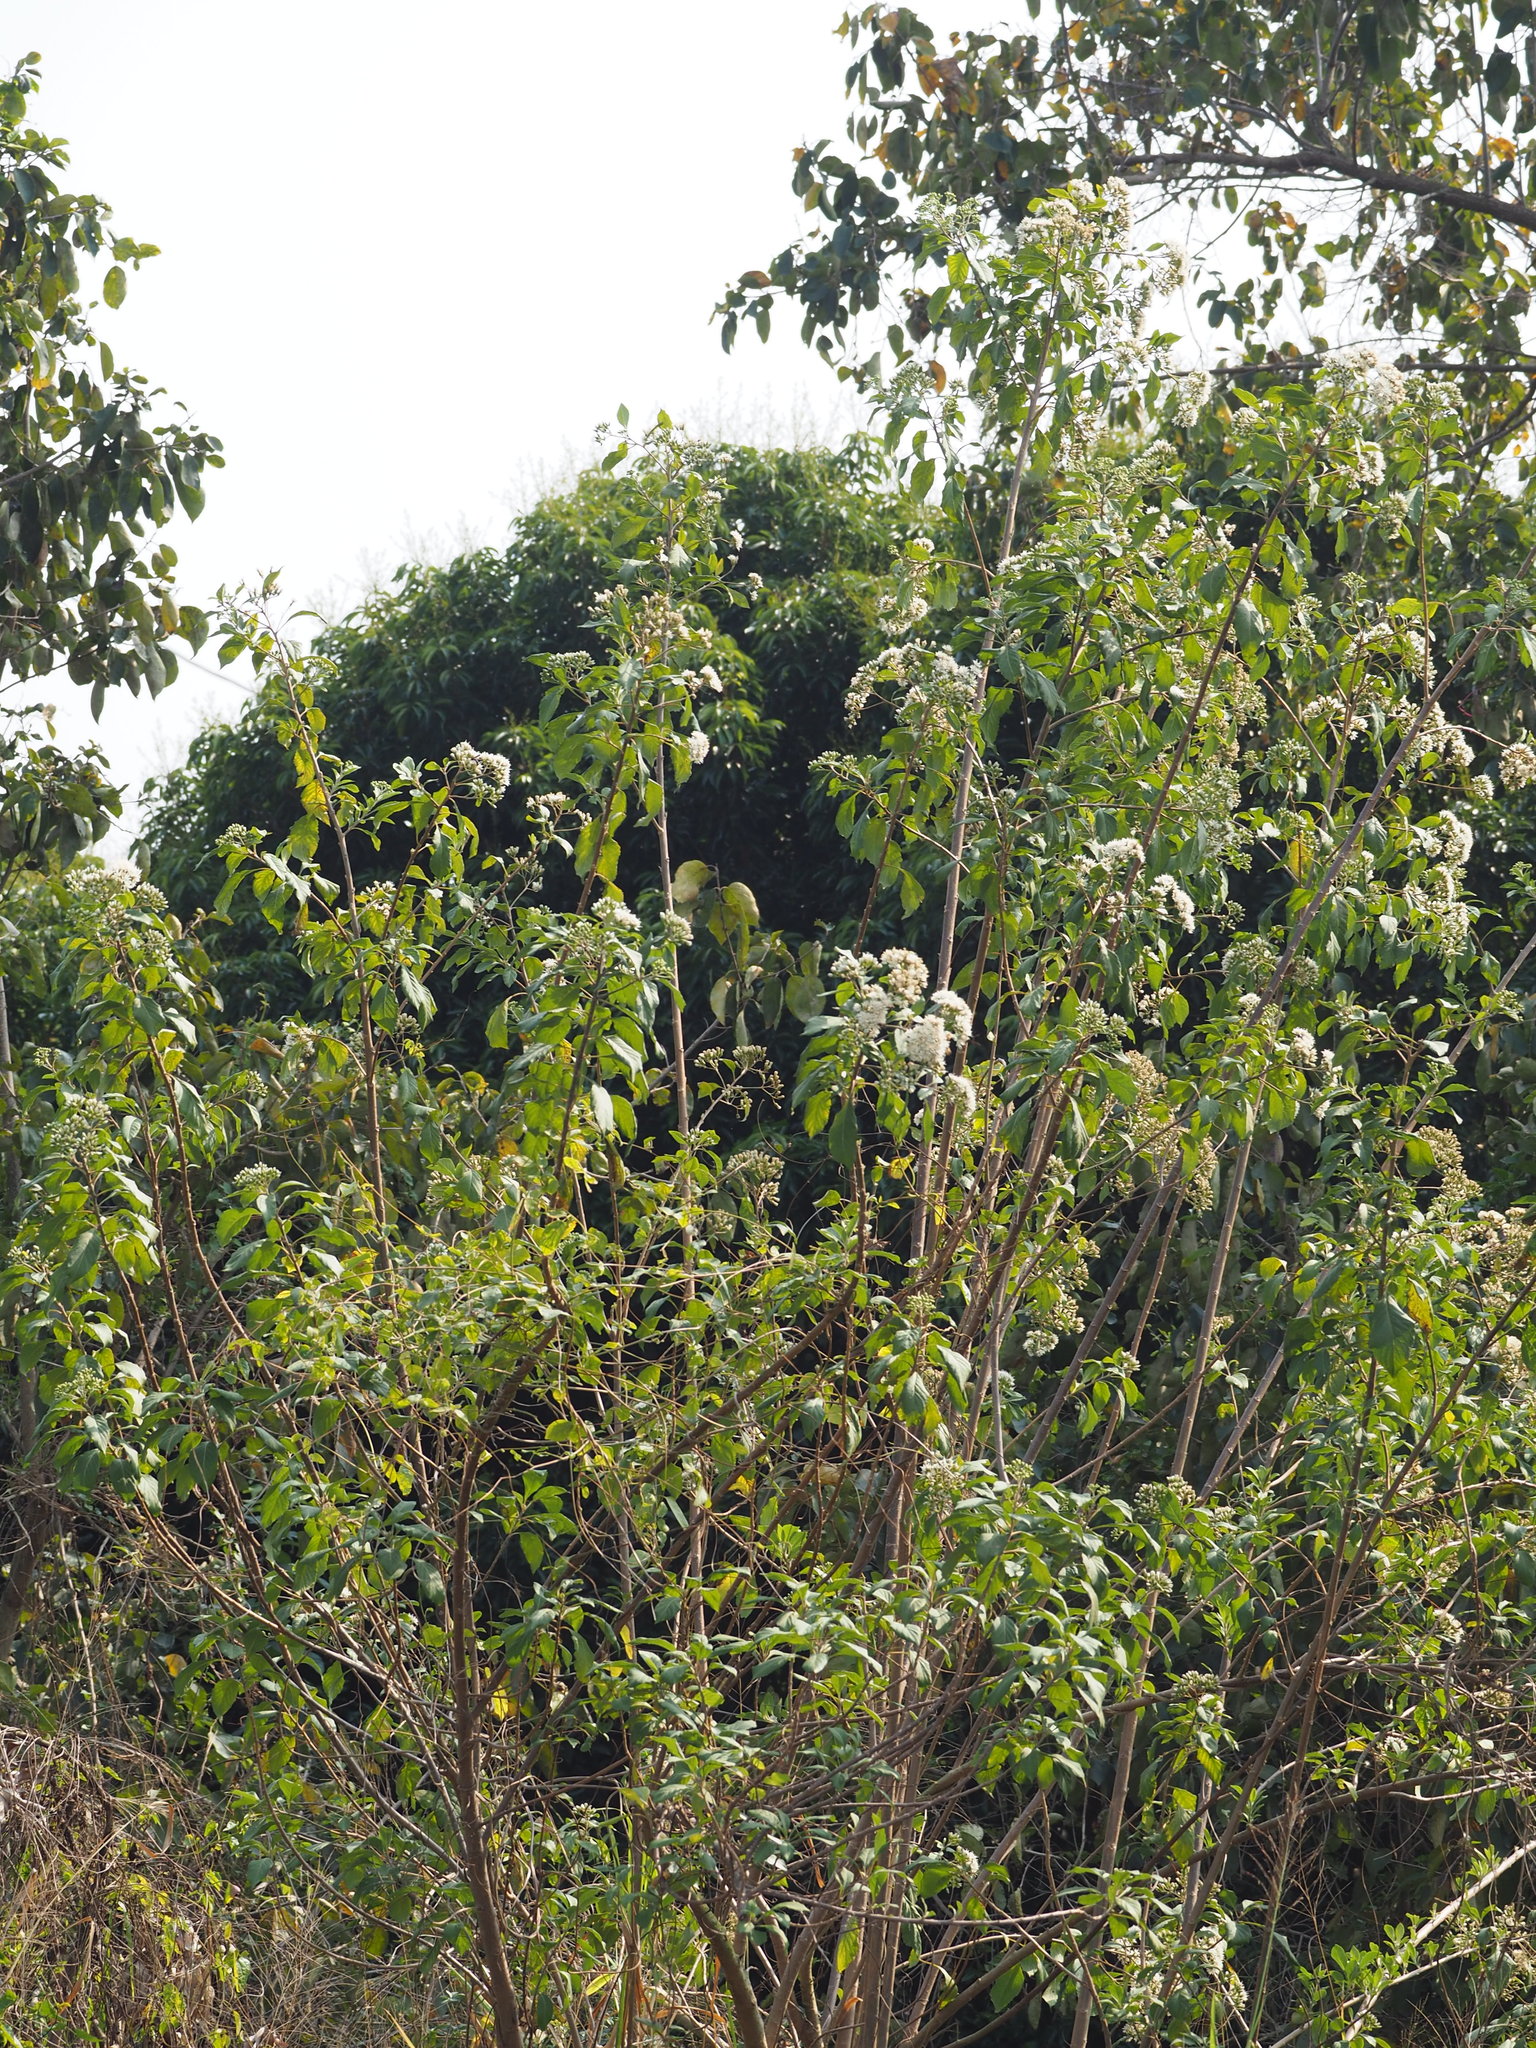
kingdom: Plantae
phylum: Tracheophyta
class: Magnoliopsida
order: Asterales
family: Asteraceae
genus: Gymnanthemum
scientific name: Gymnanthemum amygdalinum
